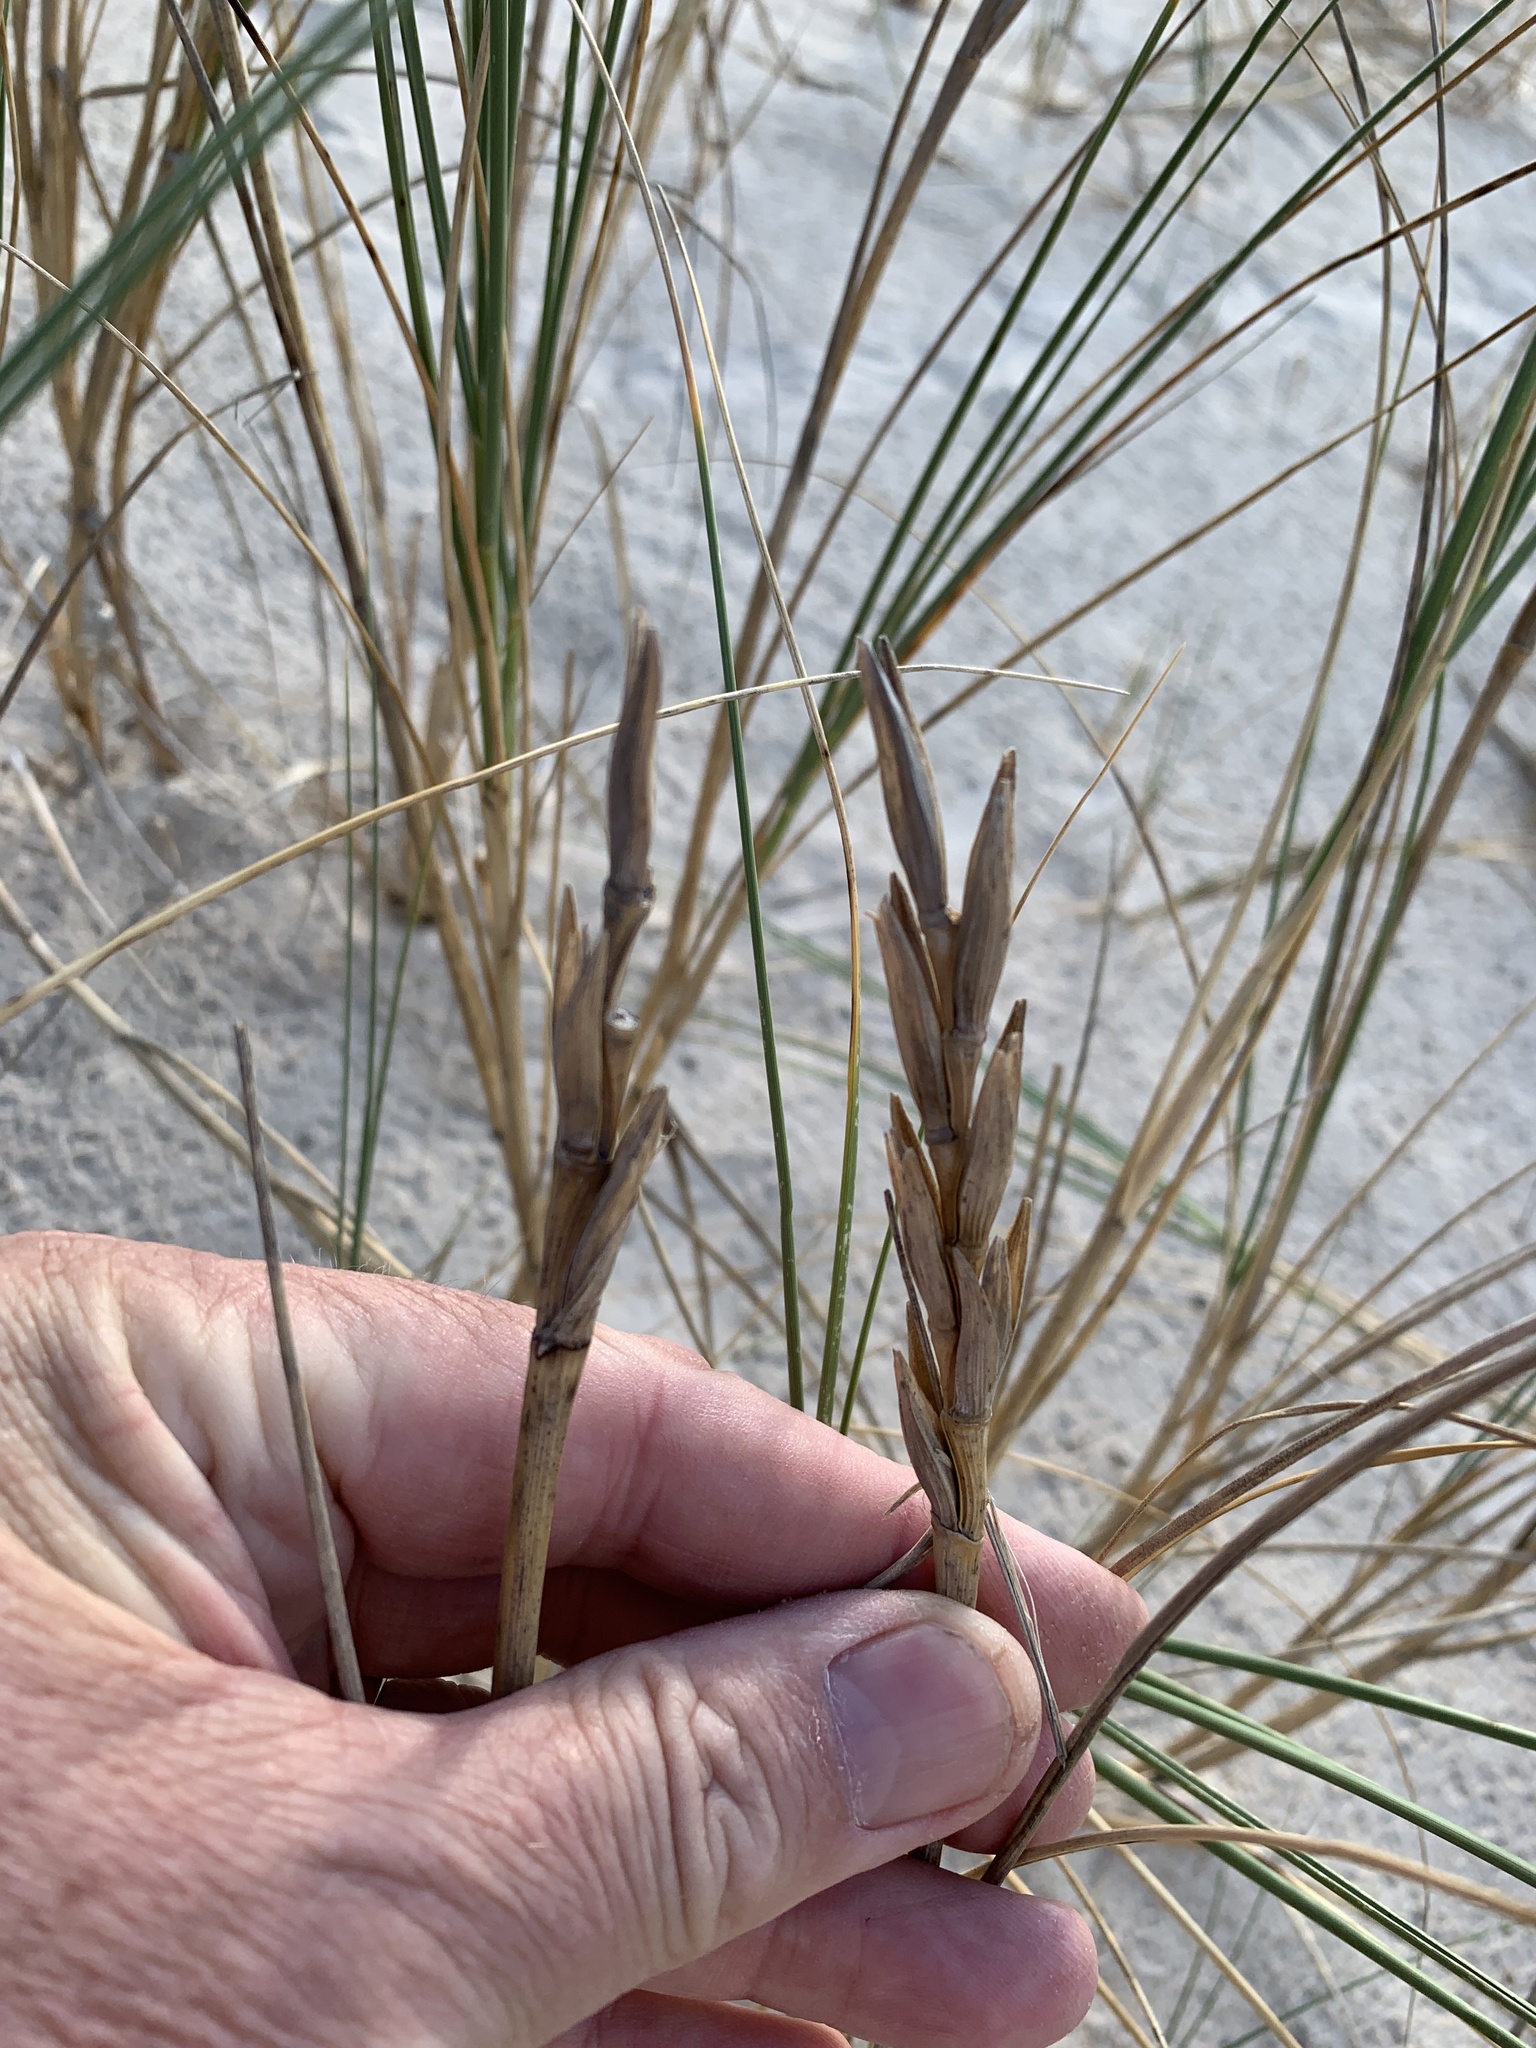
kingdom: Plantae
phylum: Tracheophyta
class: Liliopsida
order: Poales
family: Poaceae
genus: Thinopyrum
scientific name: Thinopyrum distichum
